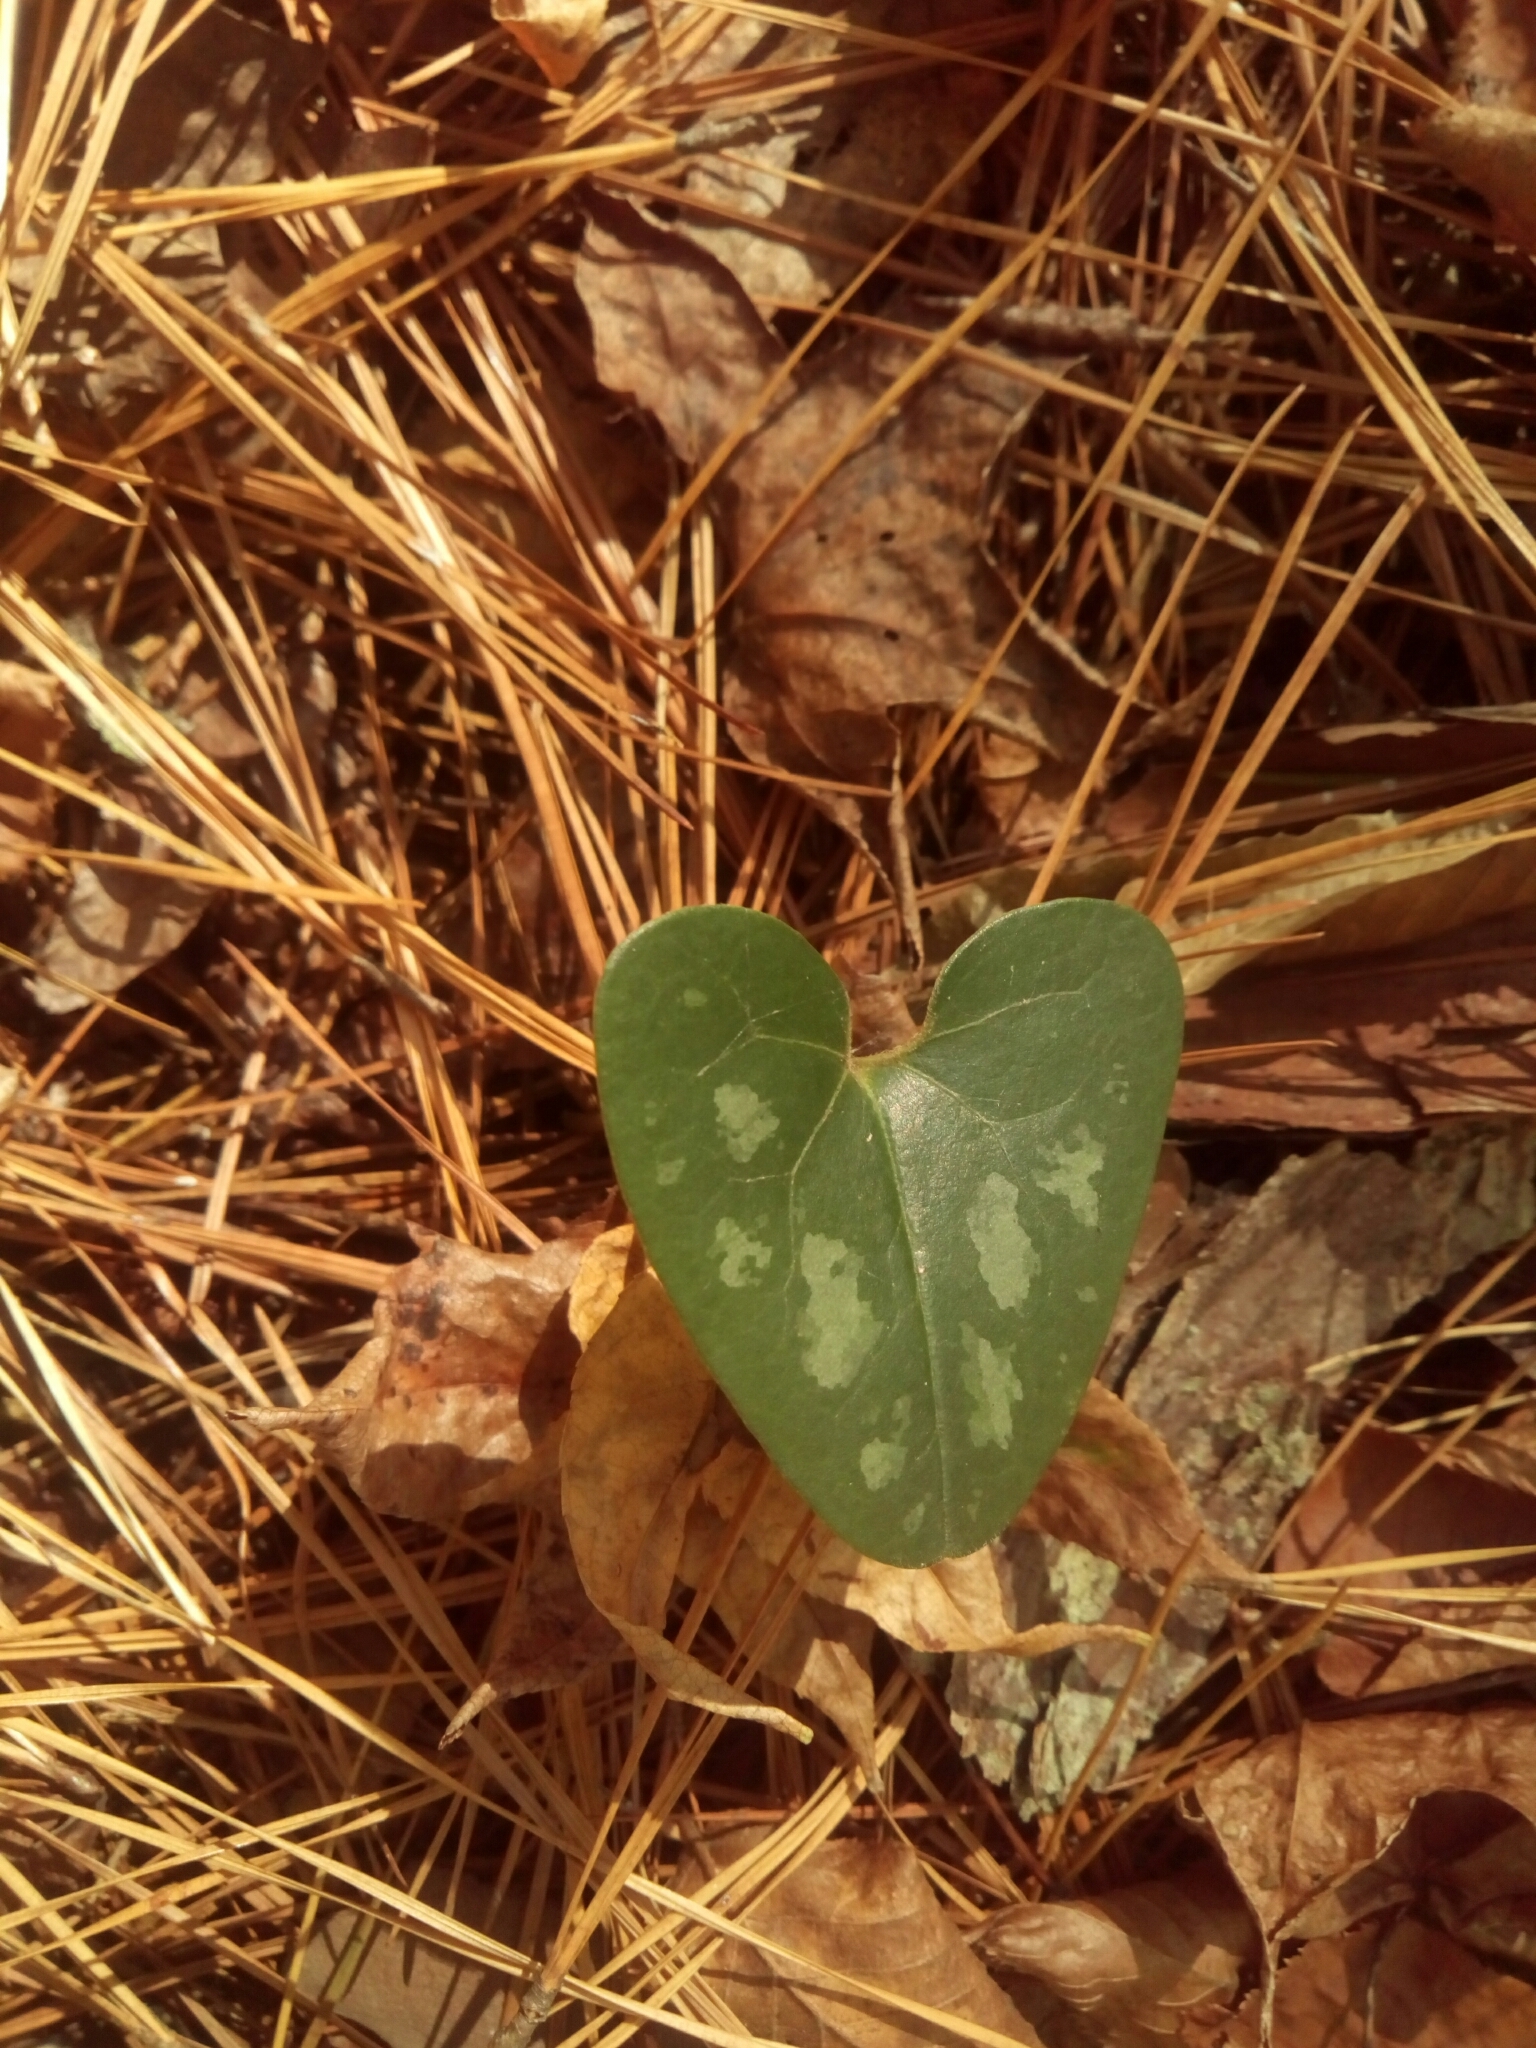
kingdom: Plantae
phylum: Tracheophyta
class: Magnoliopsida
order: Piperales
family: Aristolochiaceae
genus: Hexastylis
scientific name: Hexastylis arifolia
